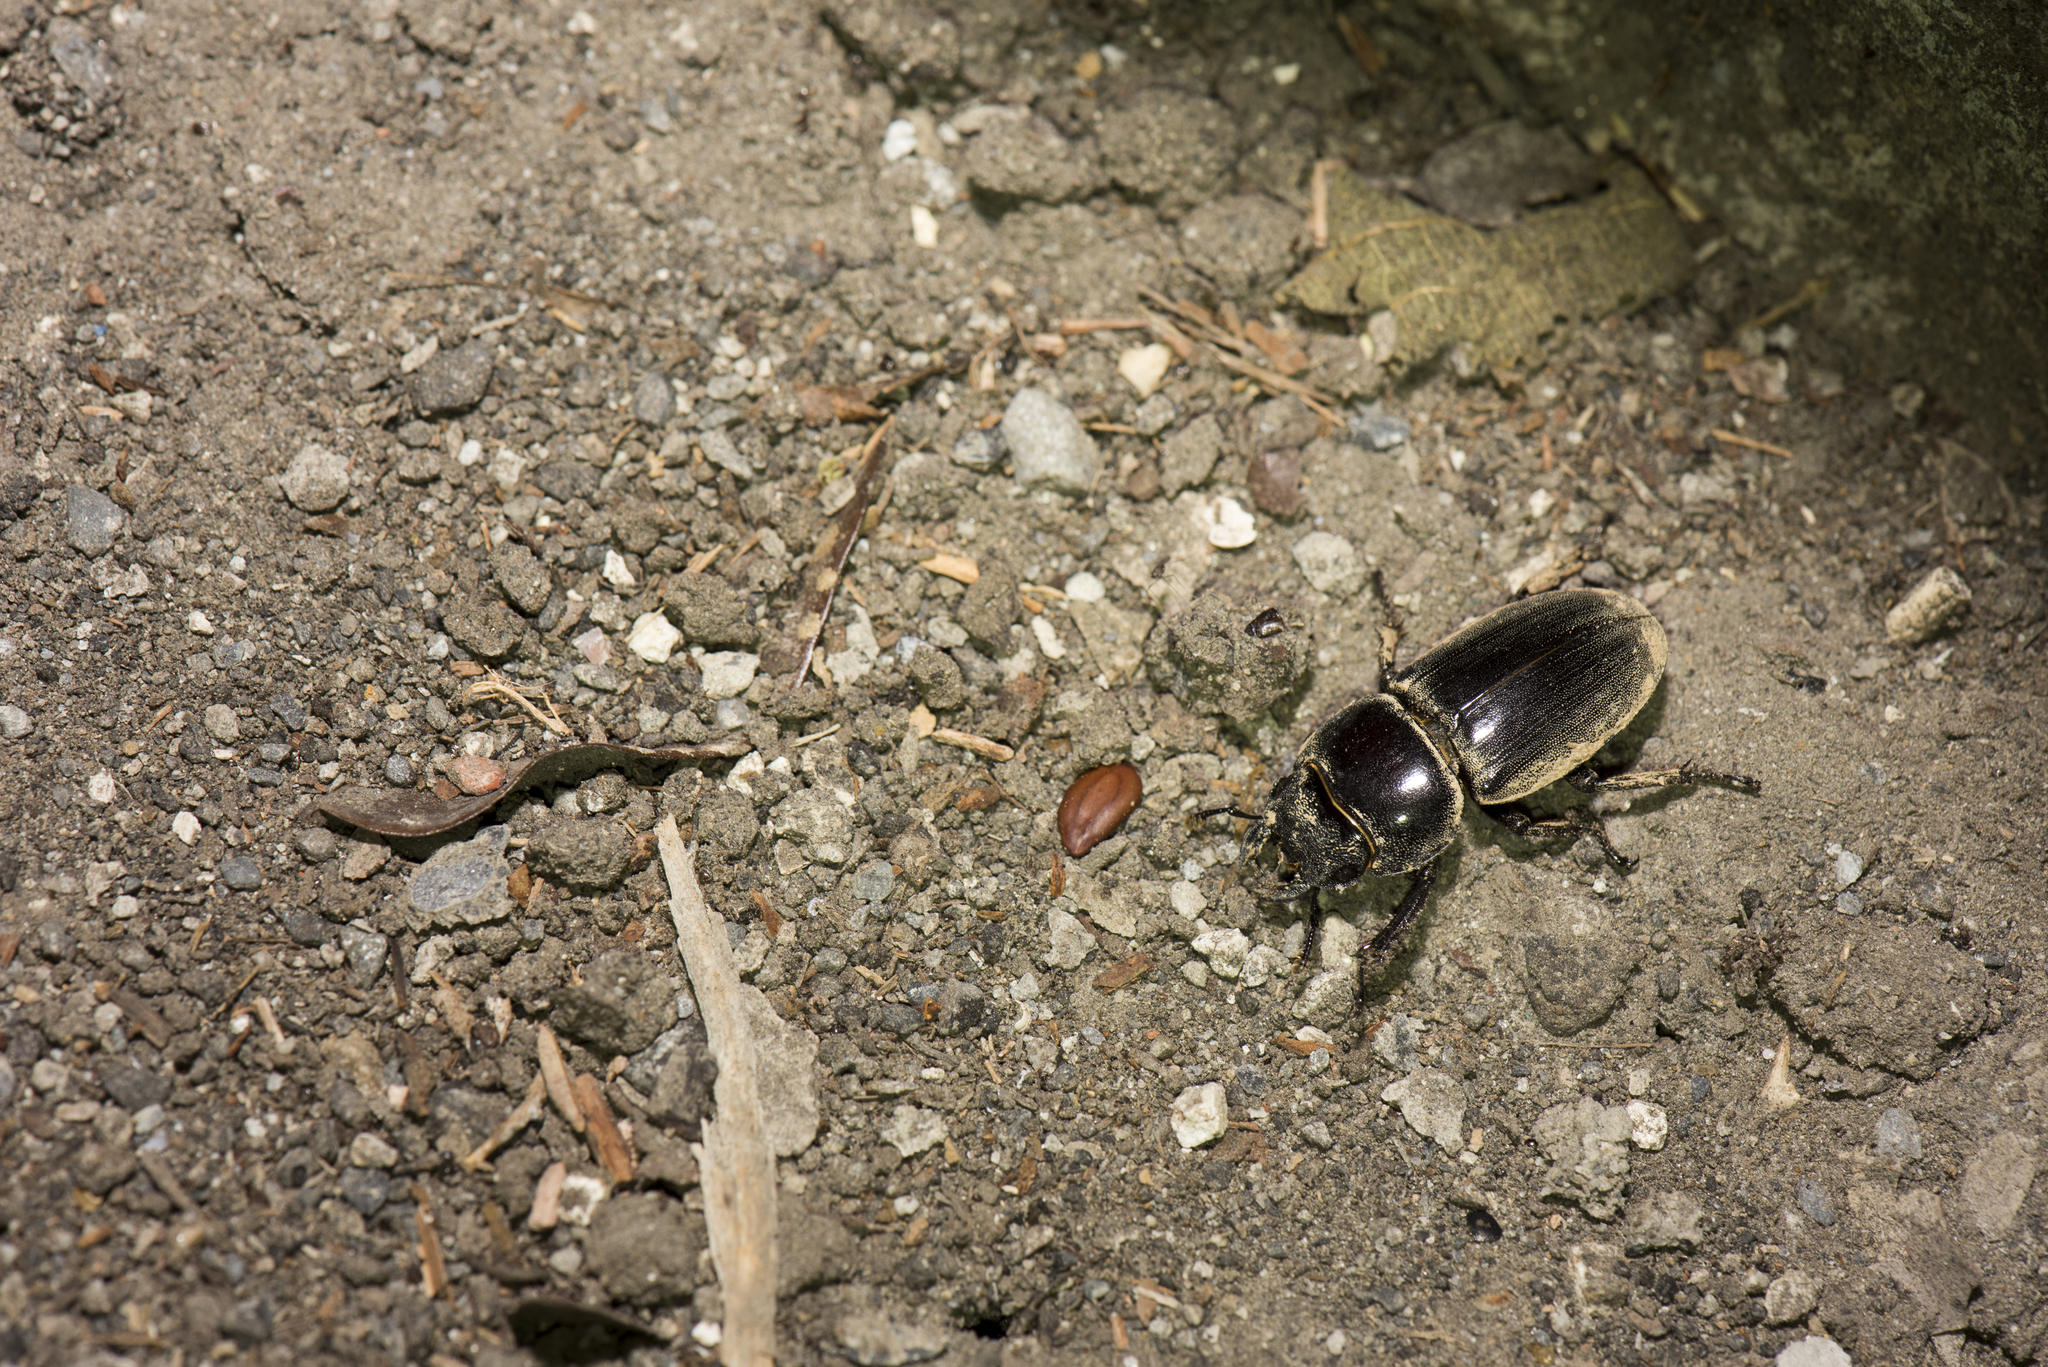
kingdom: Animalia
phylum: Arthropoda
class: Insecta
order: Coleoptera
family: Lucanidae
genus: Serrognathus
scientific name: Serrognathus titanus
